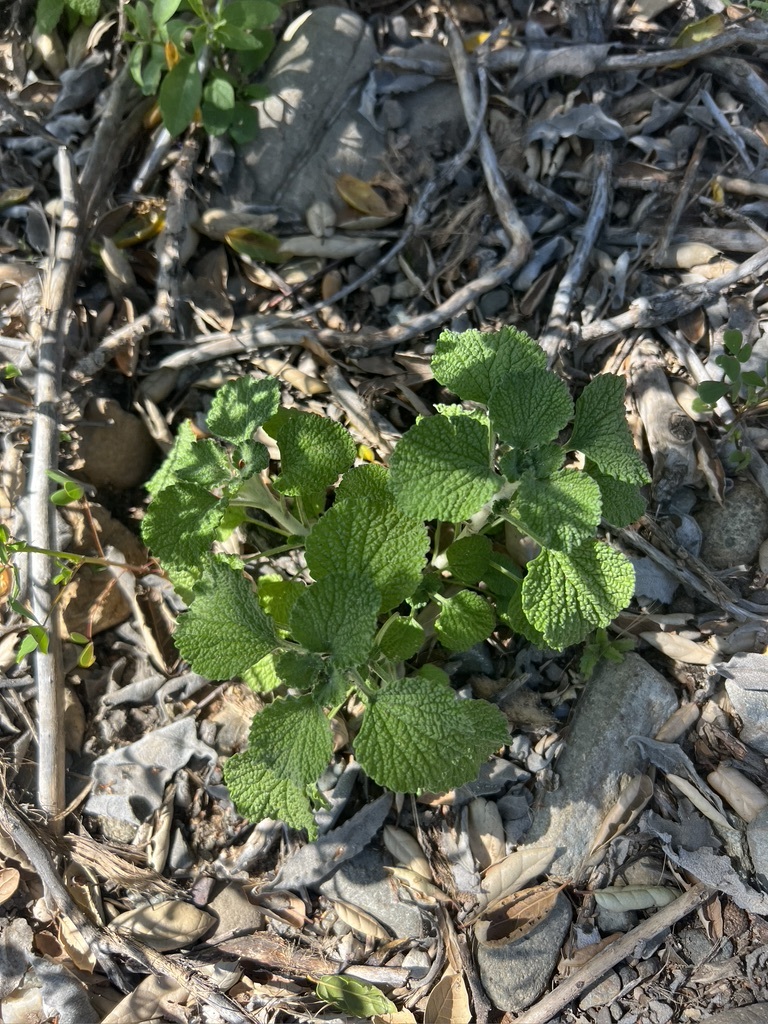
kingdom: Plantae
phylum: Tracheophyta
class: Magnoliopsida
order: Lamiales
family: Lamiaceae
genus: Marrubium
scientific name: Marrubium vulgare
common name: Horehound
